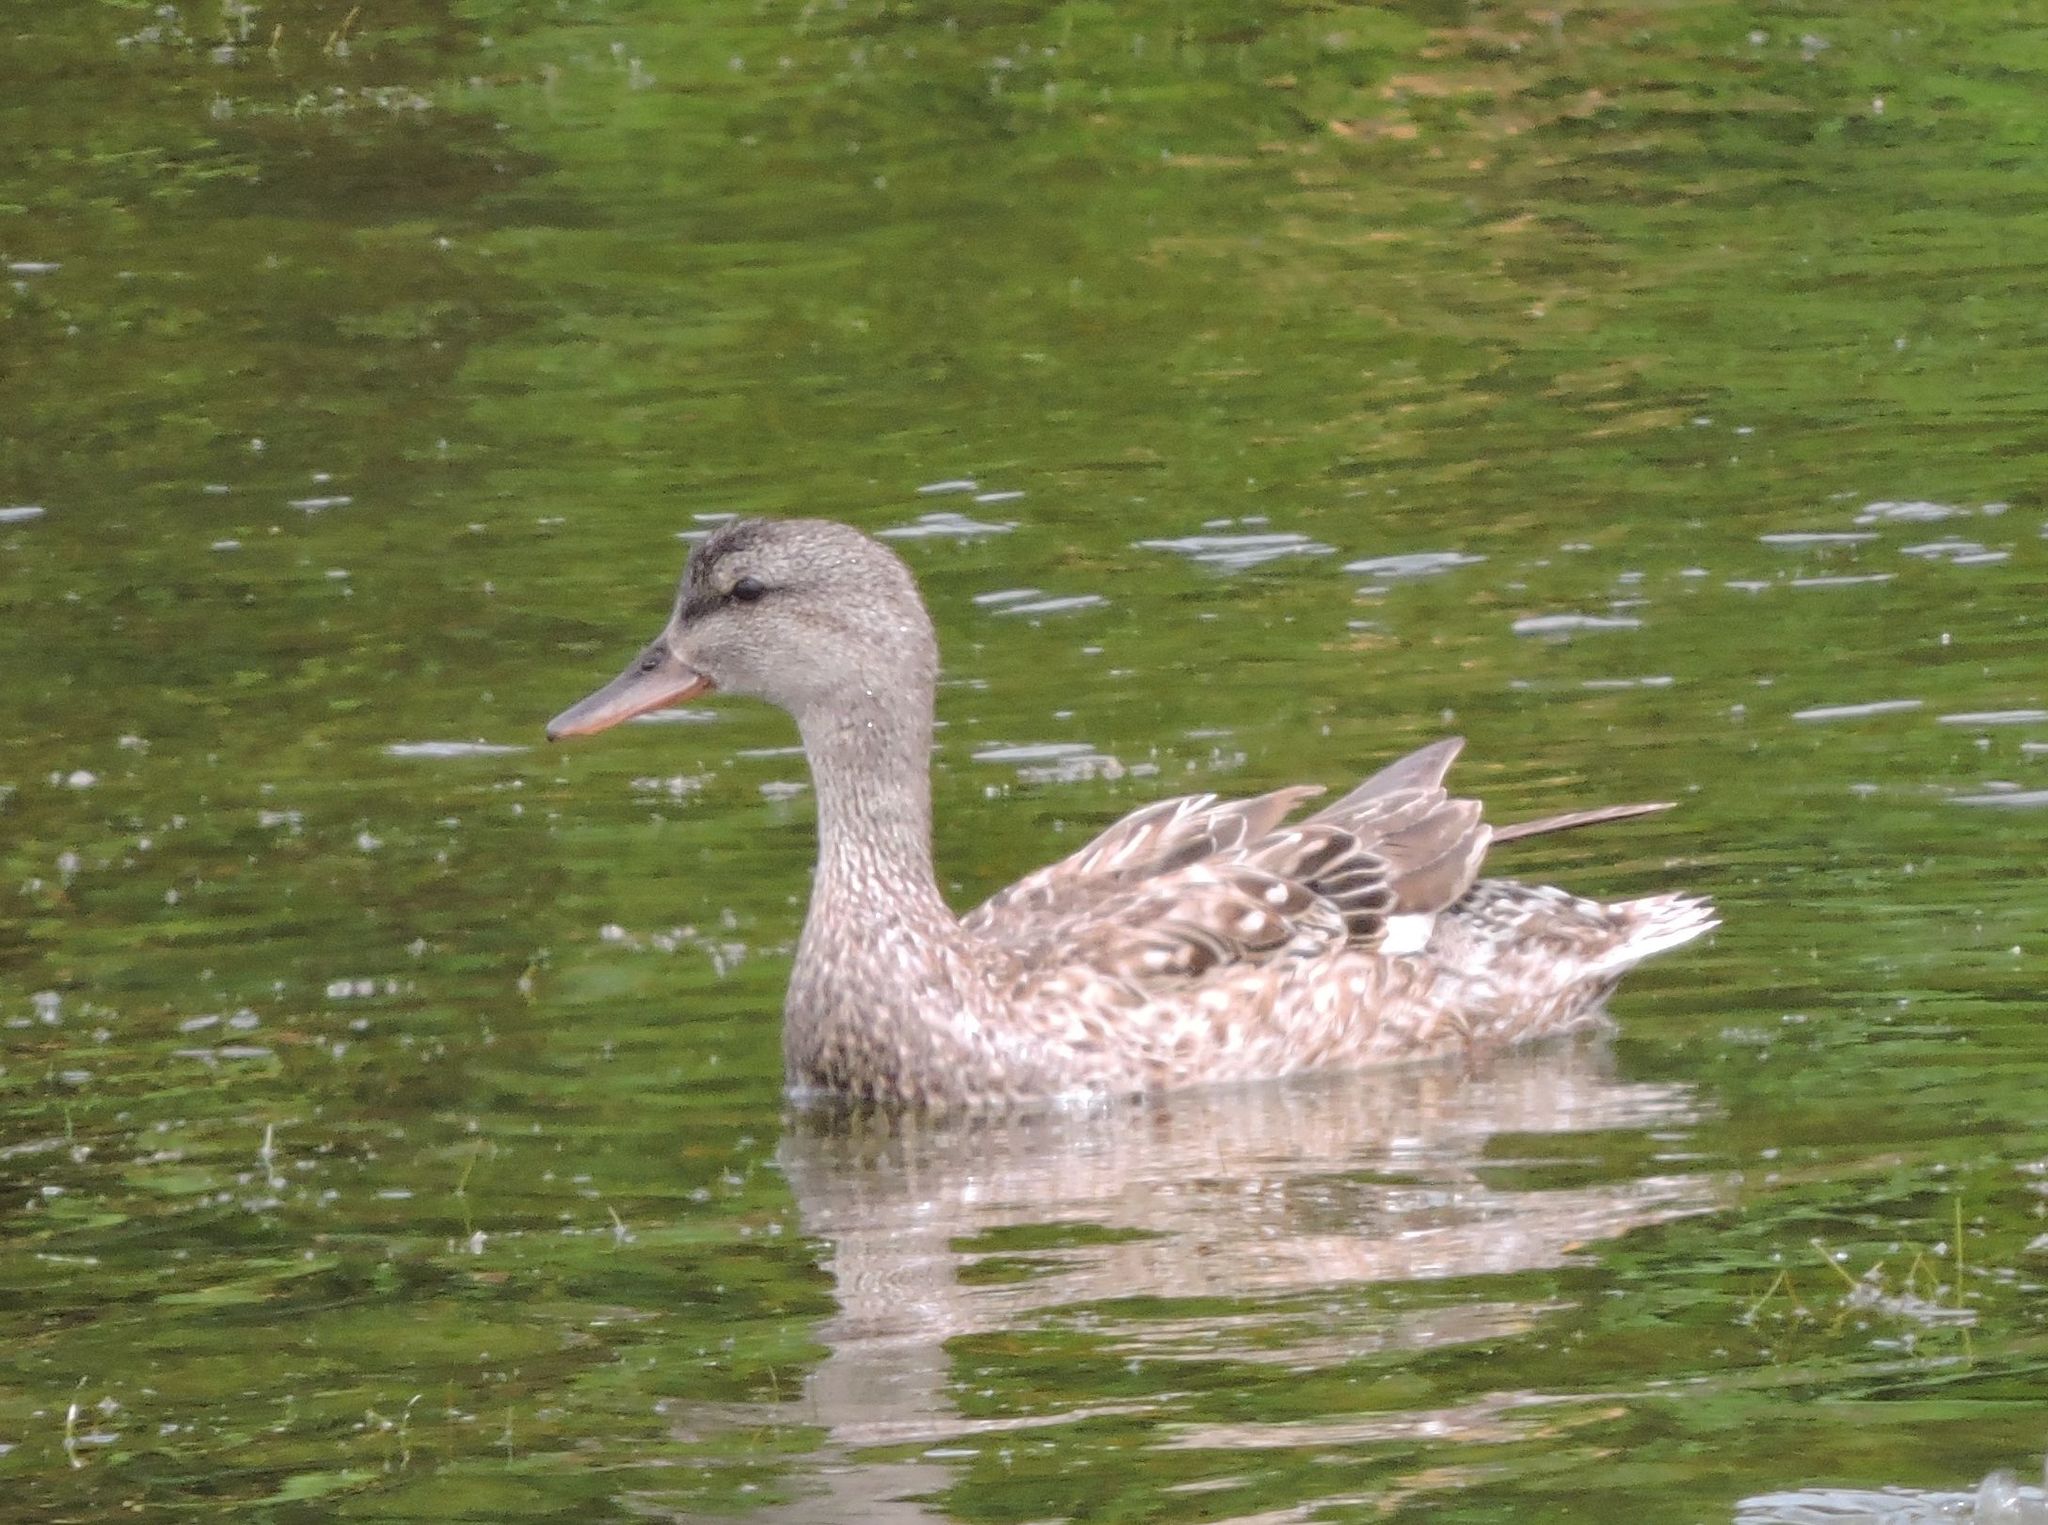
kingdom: Animalia
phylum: Chordata
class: Aves
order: Anseriformes
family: Anatidae
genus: Mareca
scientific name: Mareca strepera
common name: Gadwall
